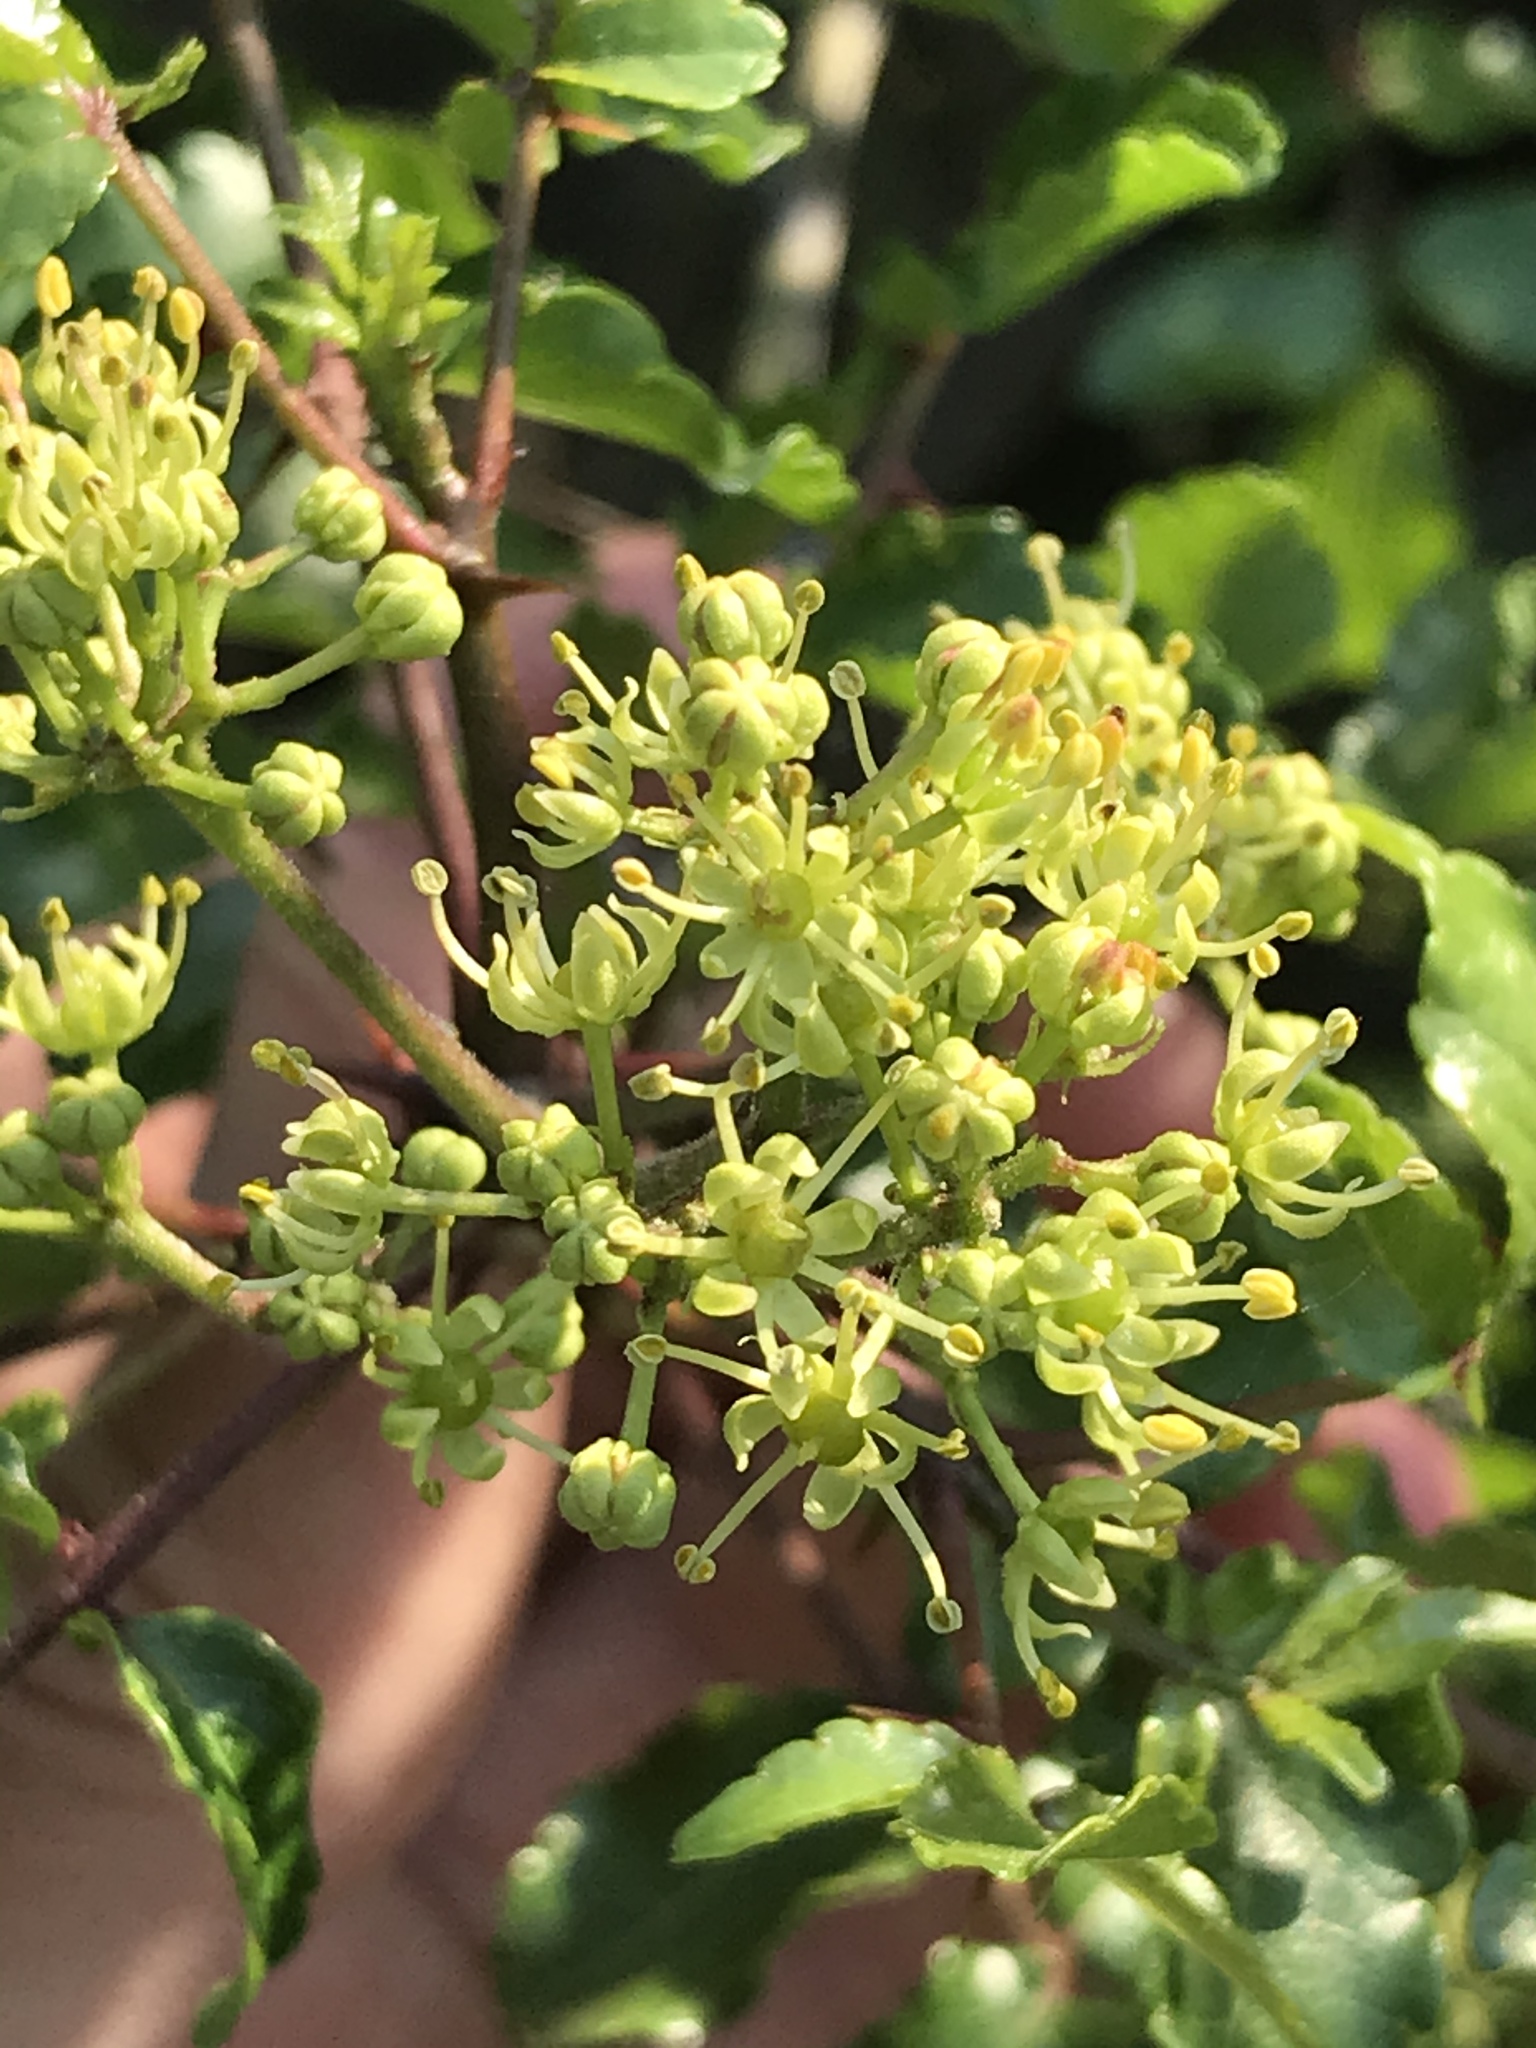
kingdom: Plantae
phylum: Tracheophyta
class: Magnoliopsida
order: Sapindales
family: Rutaceae
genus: Zanthoxylum
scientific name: Zanthoxylum clava-herculis
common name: Hercules'-club
